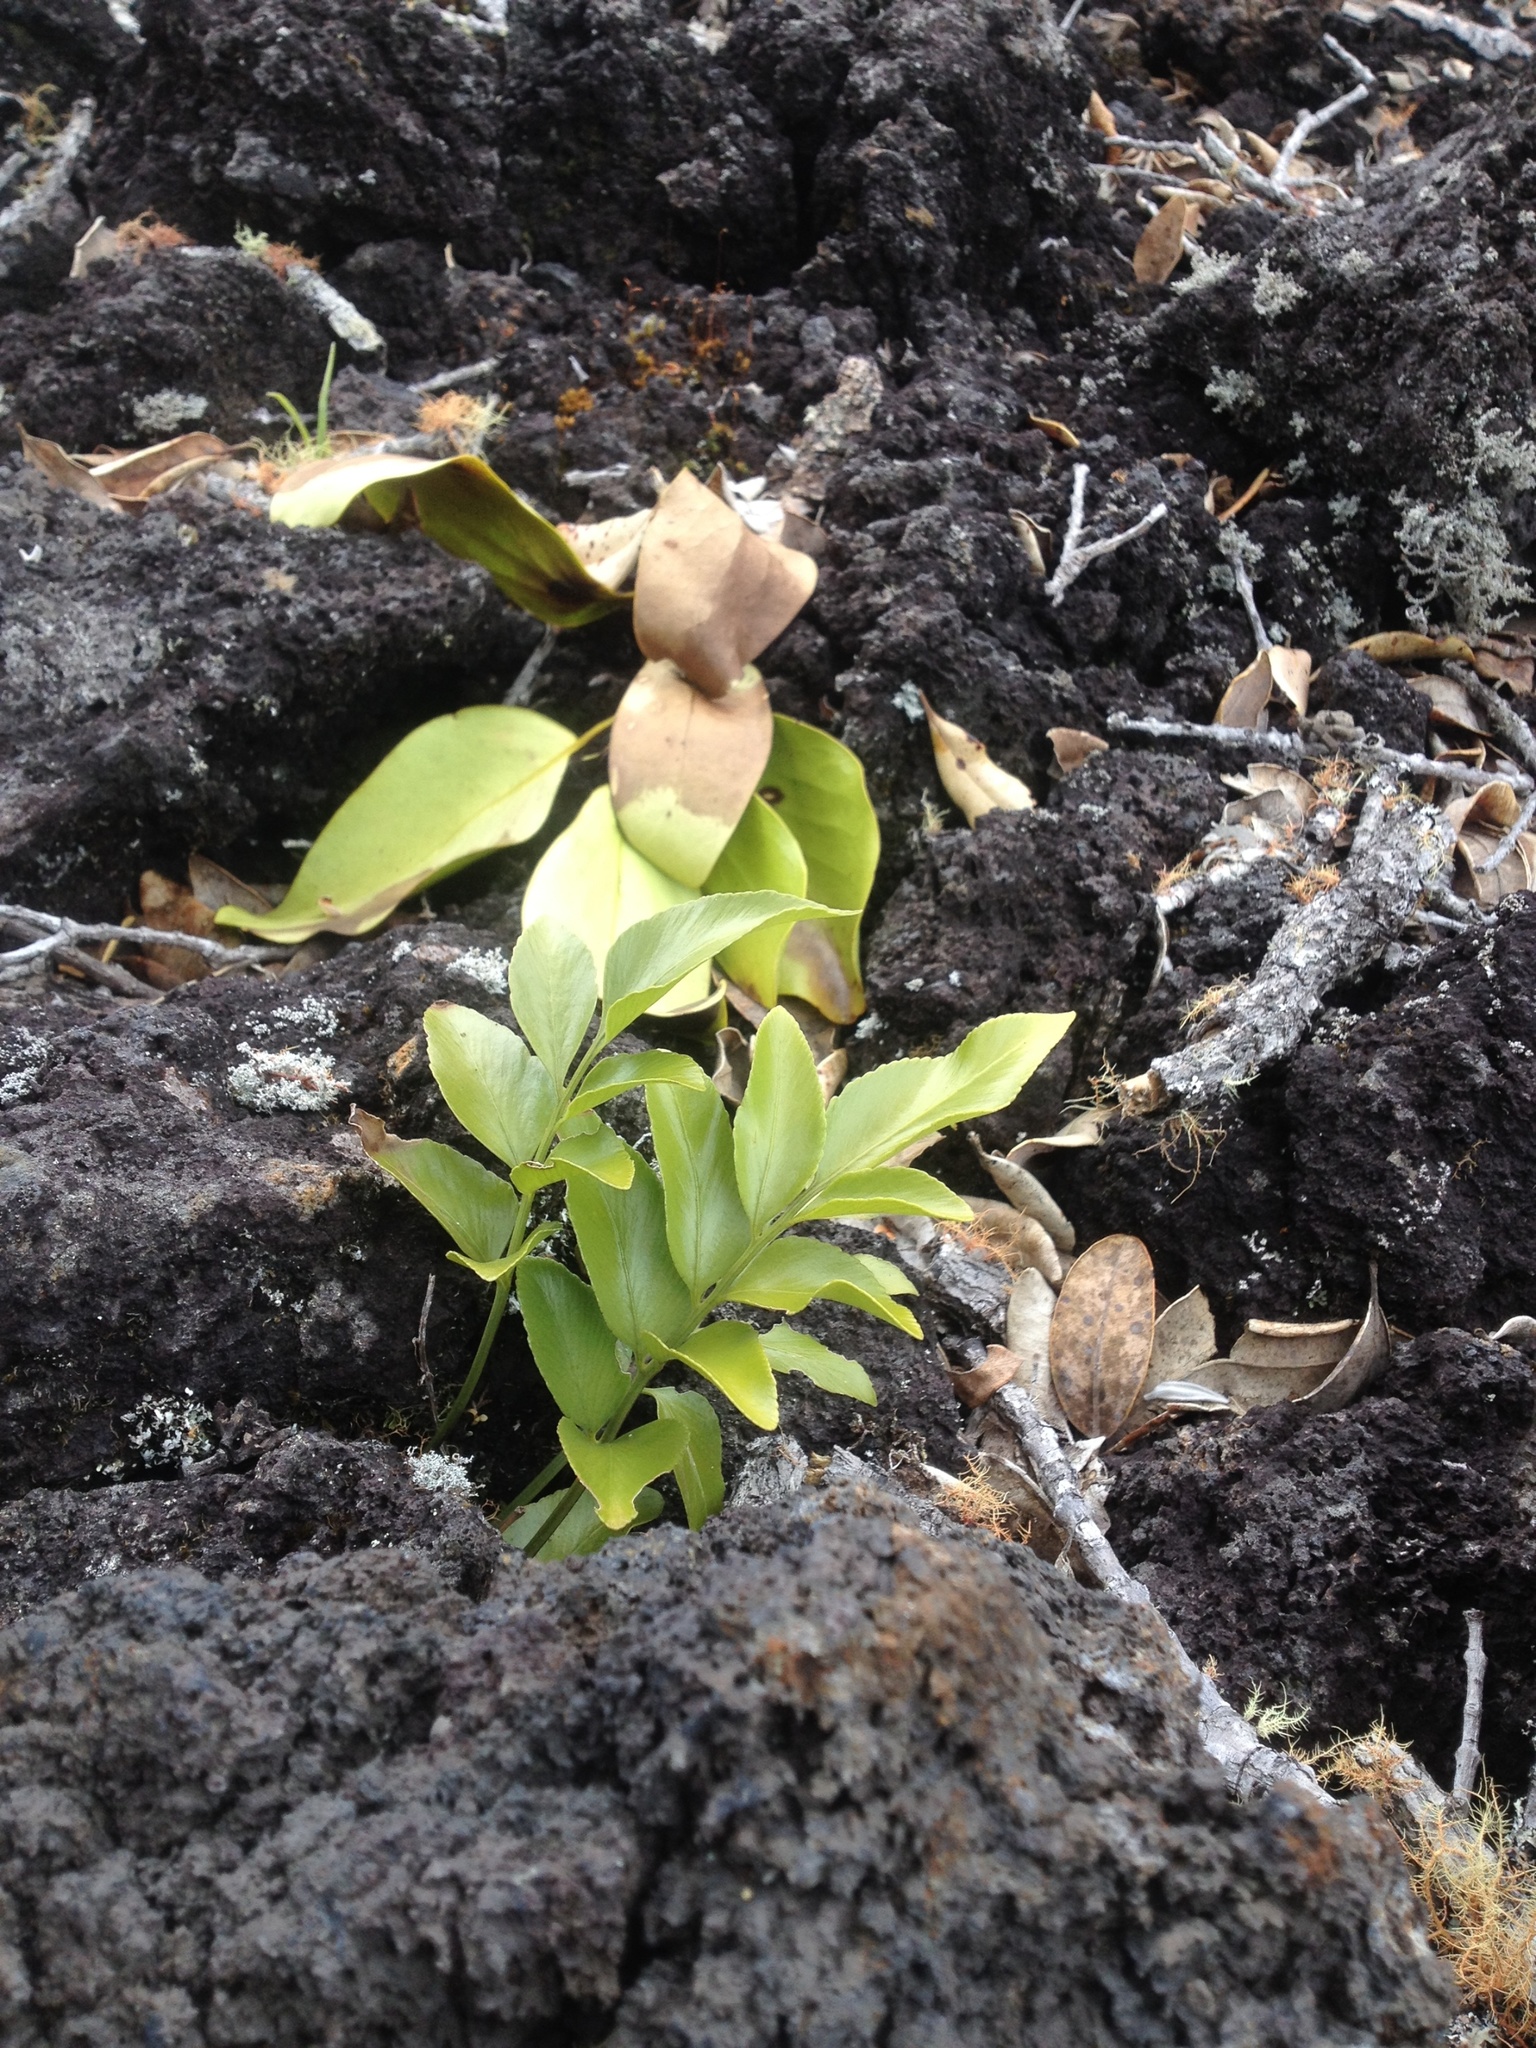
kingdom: Plantae
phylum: Tracheophyta
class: Polypodiopsida
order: Polypodiales
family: Aspleniaceae
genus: Asplenium
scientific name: Asplenium oblongifolium
